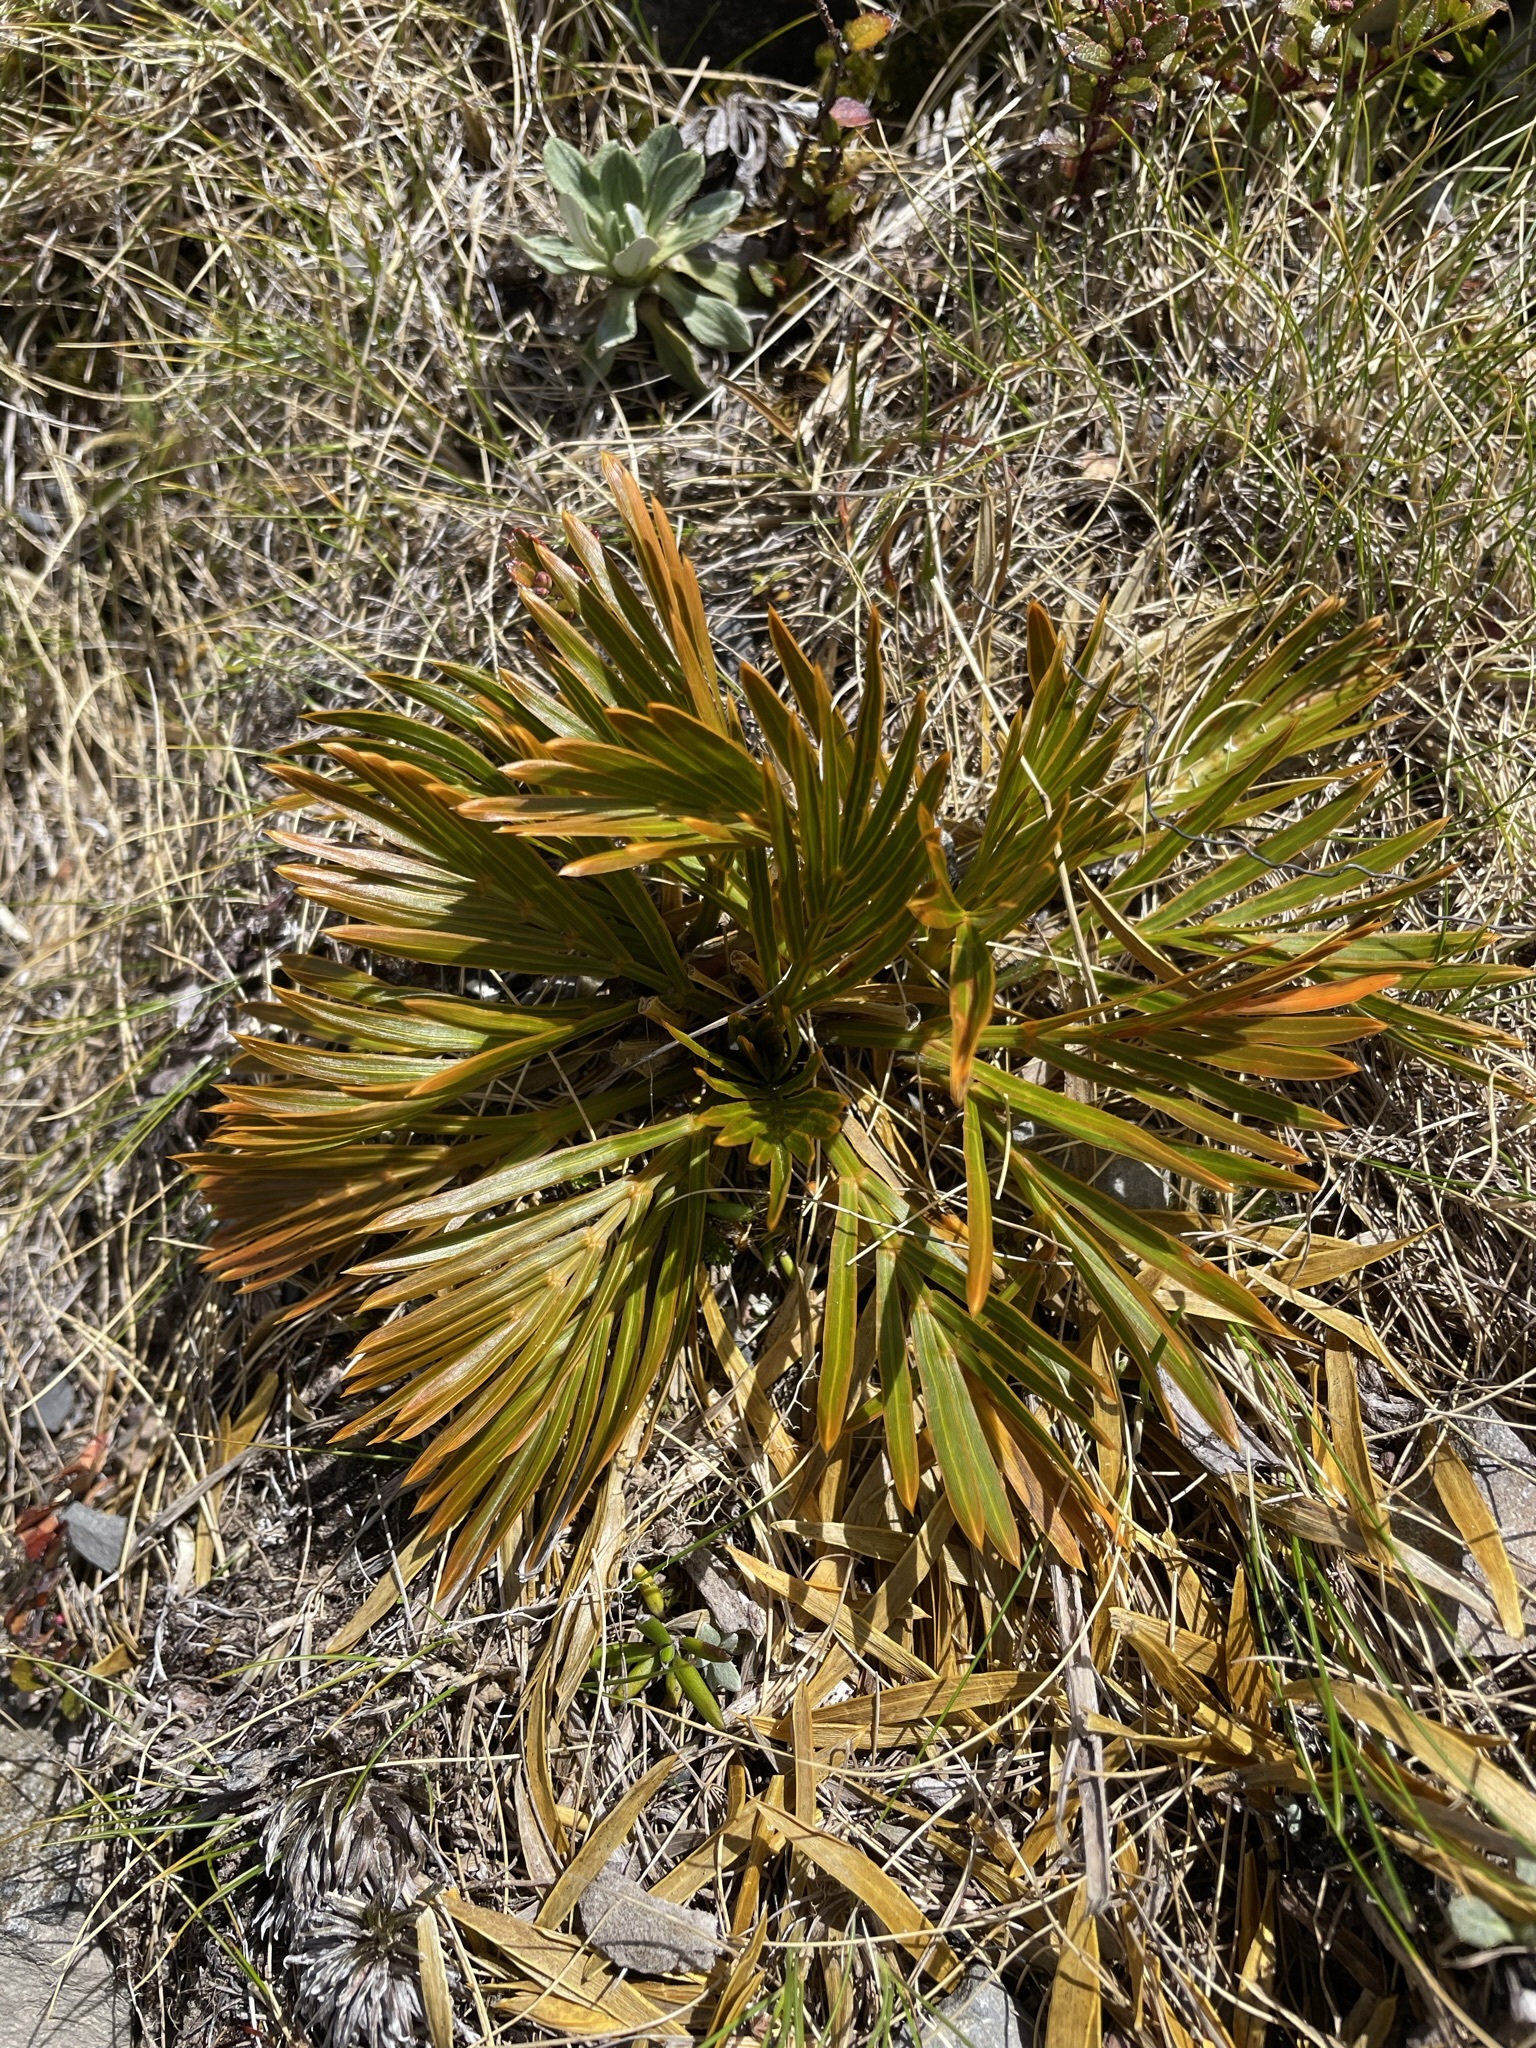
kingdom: Plantae
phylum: Tracheophyta
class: Magnoliopsida
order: Apiales
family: Apiaceae
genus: Aciphylla
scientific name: Aciphylla similis
